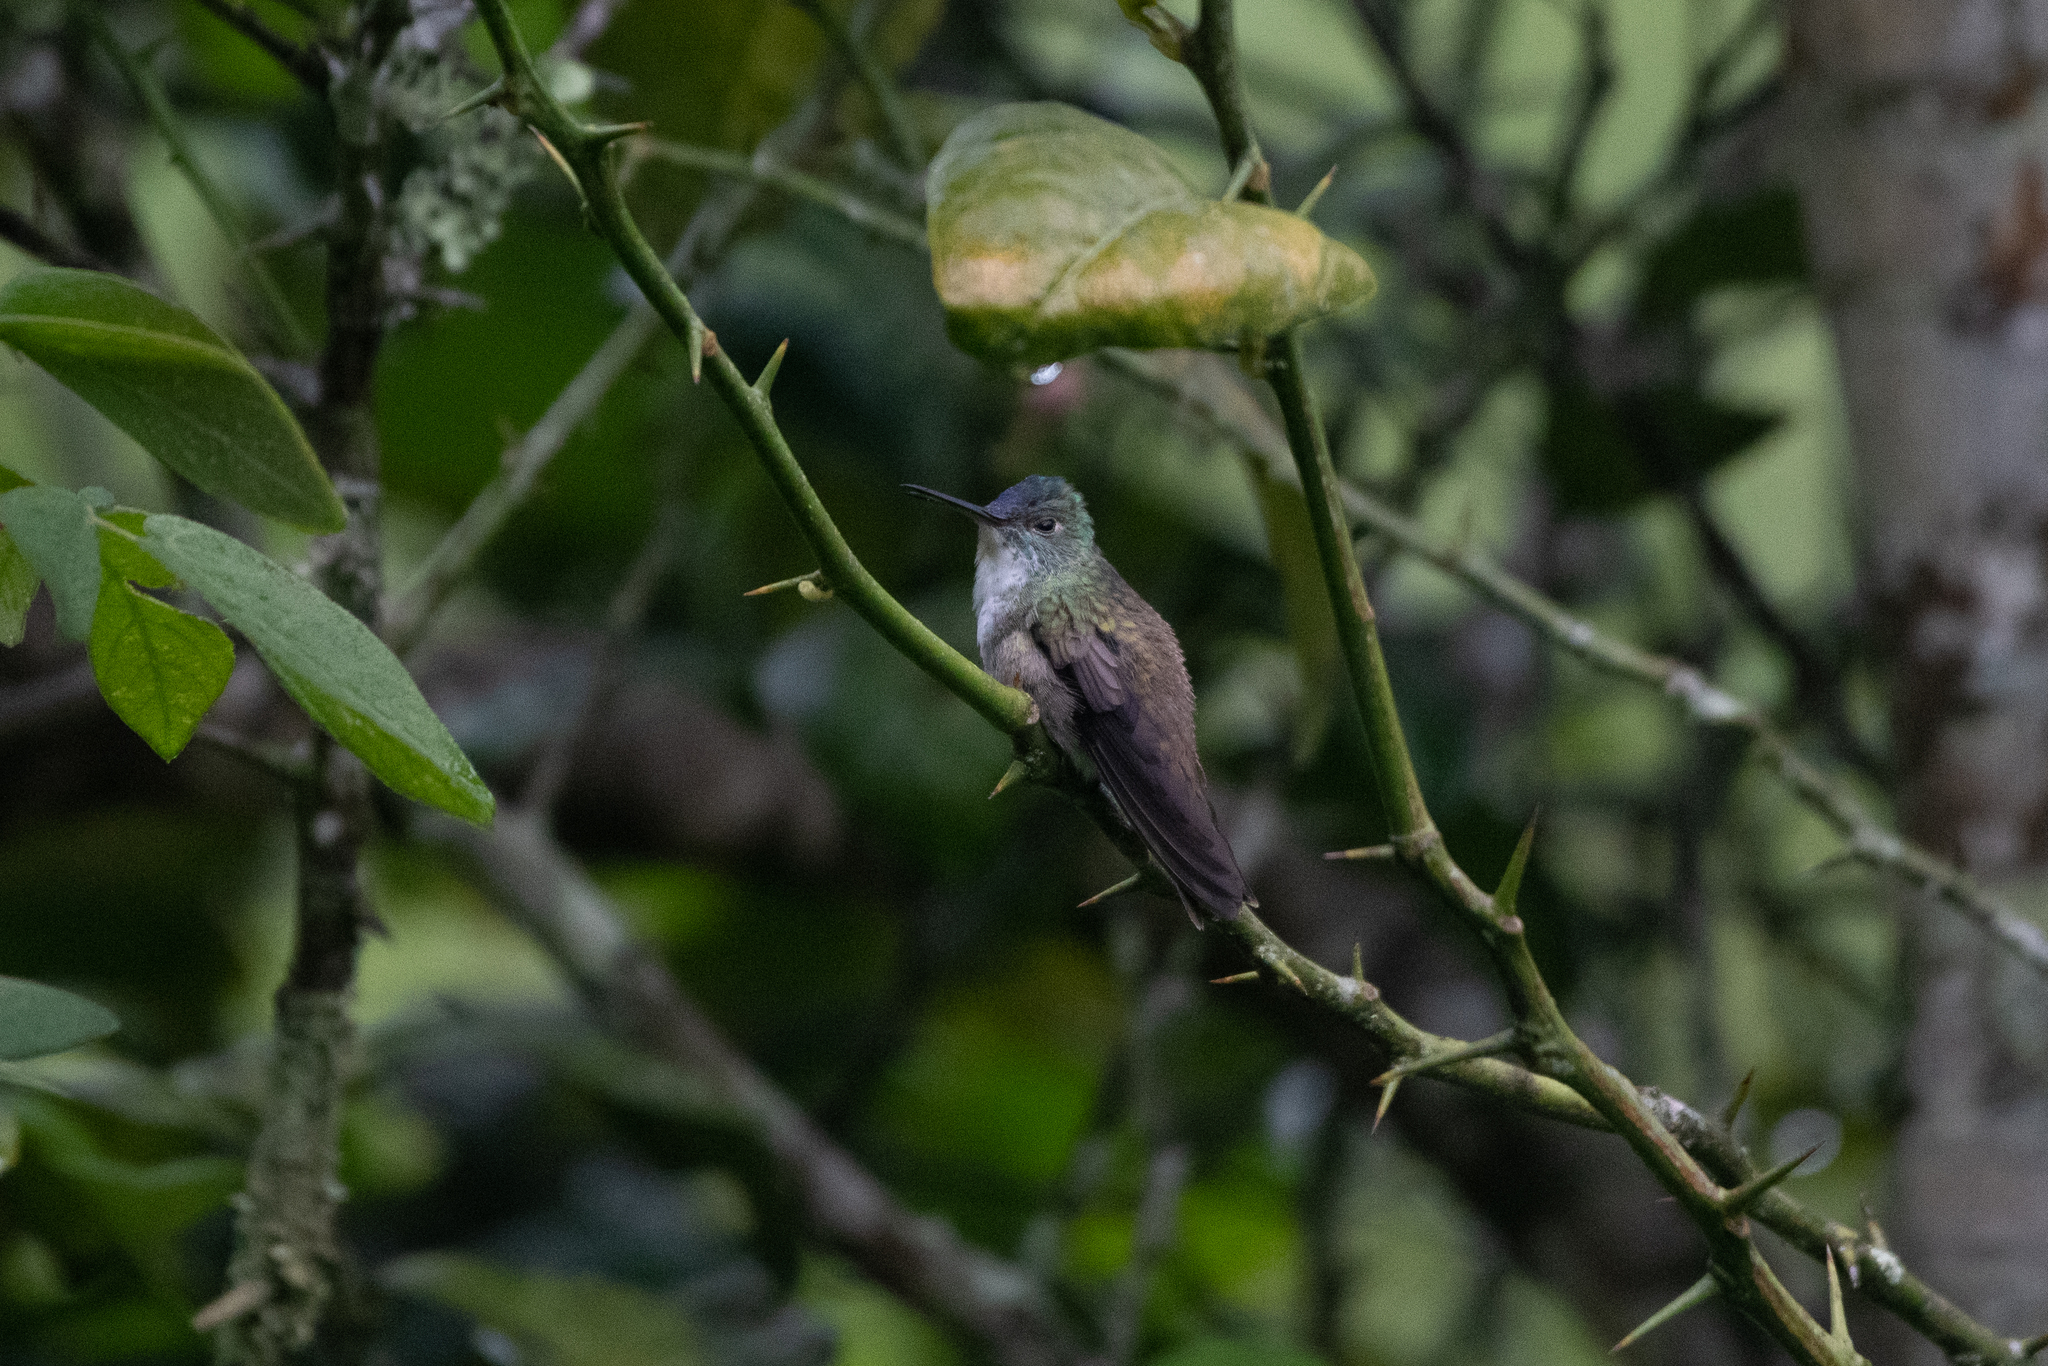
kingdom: Animalia
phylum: Chordata
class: Aves
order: Apodiformes
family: Trochilidae
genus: Saucerottia
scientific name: Saucerottia cyanocephala
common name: Azure-crowned hummingbird
